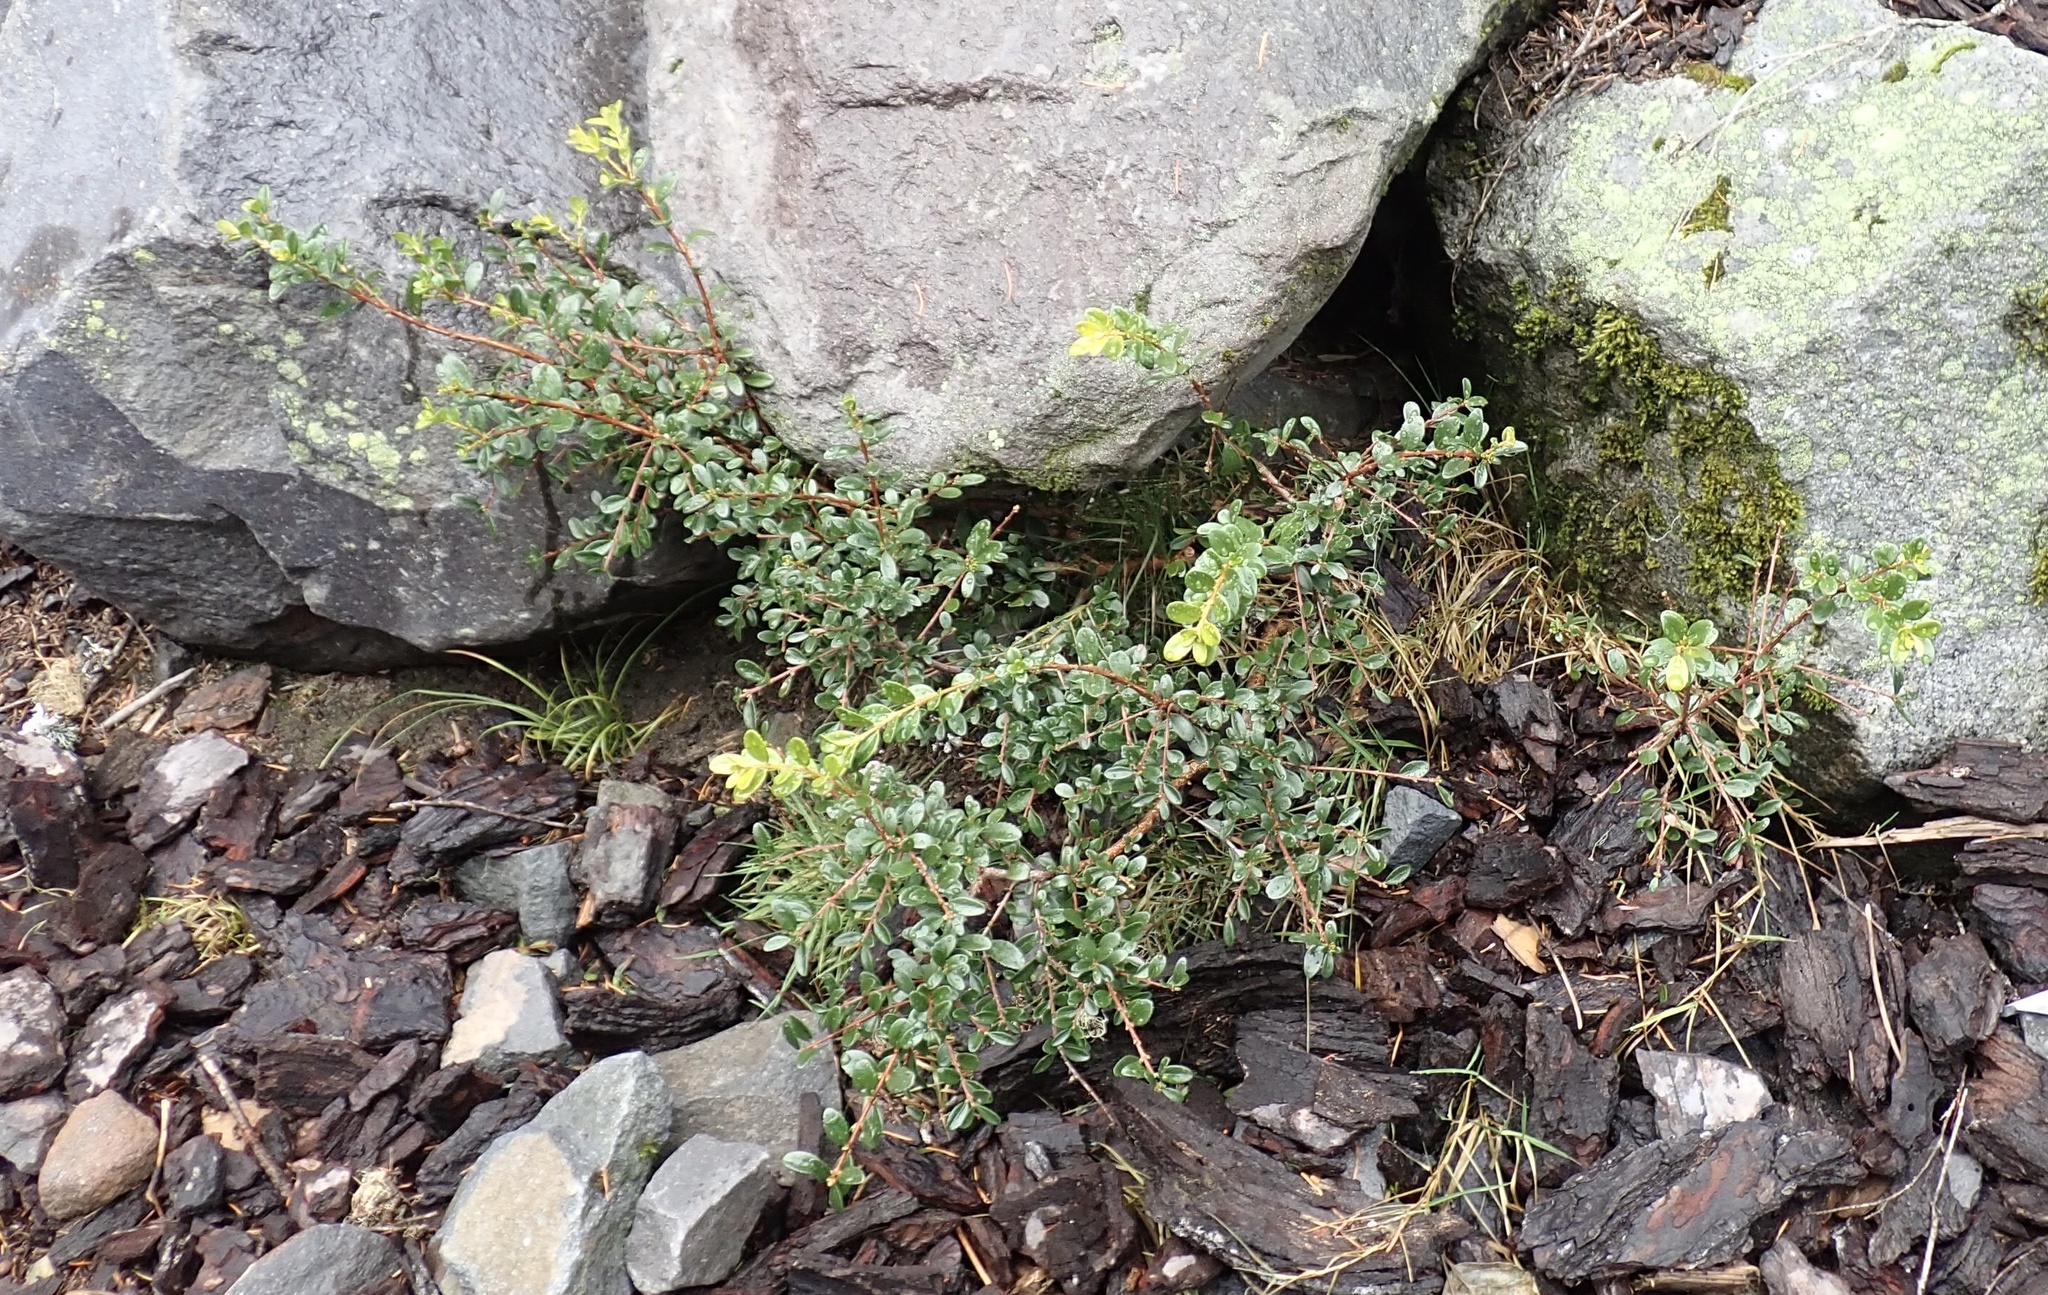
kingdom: Plantae
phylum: Tracheophyta
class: Magnoliopsida
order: Celastrales
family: Celastraceae
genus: Paxistima
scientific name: Paxistima myrsinites
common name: Mountain-lover
